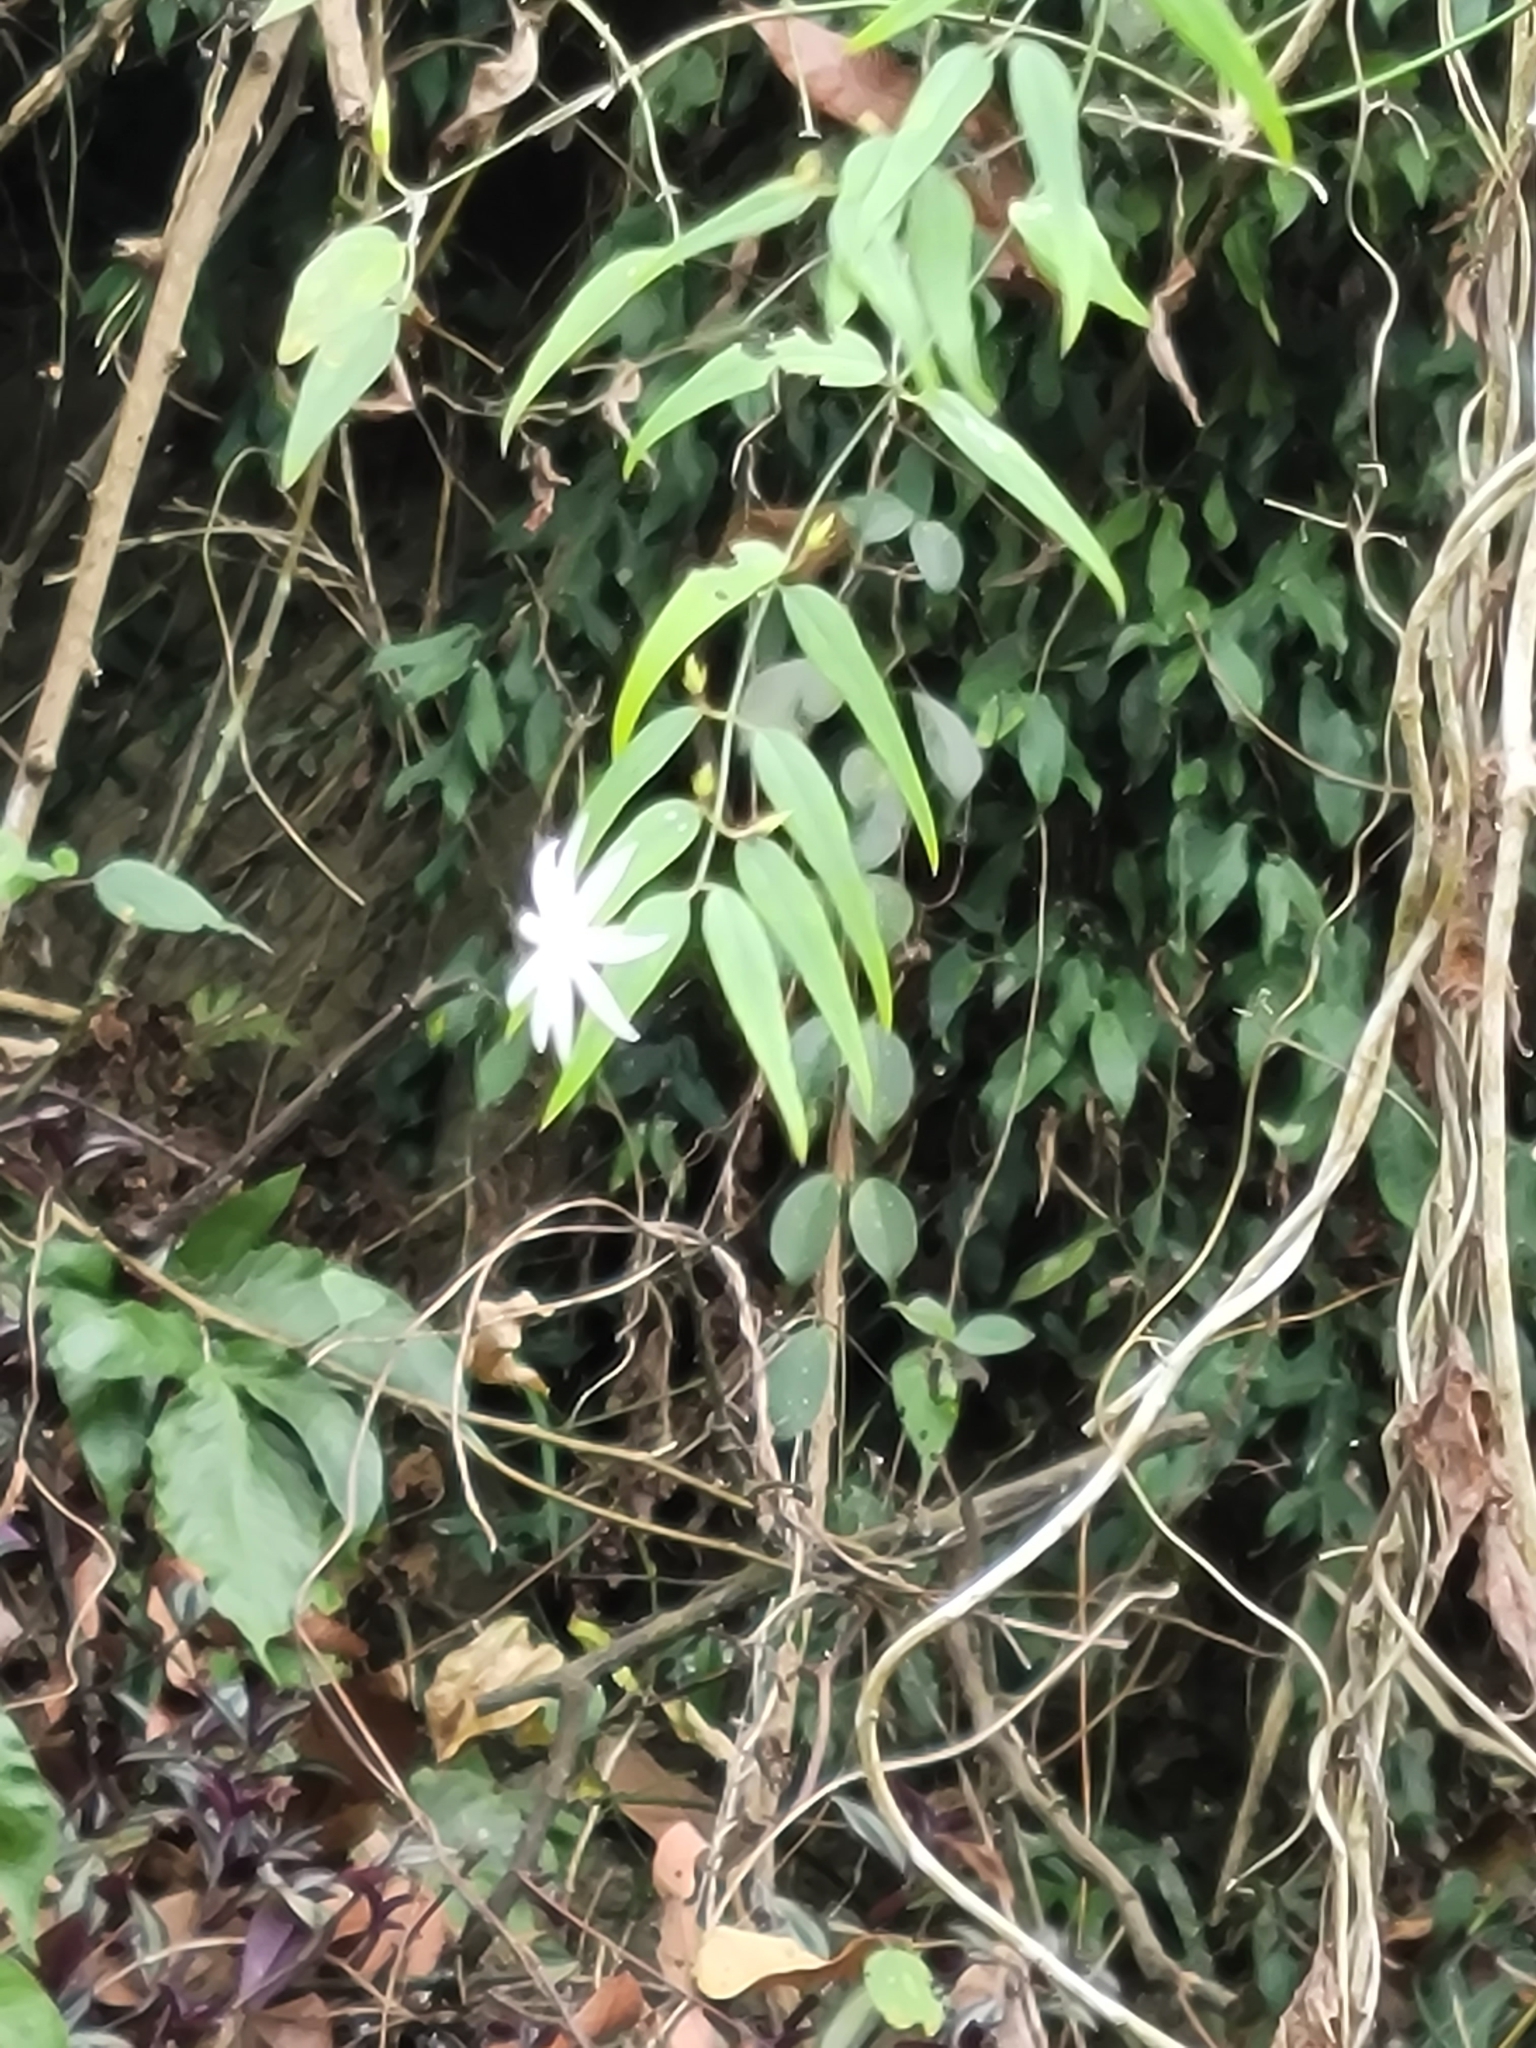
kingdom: Plantae
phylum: Tracheophyta
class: Magnoliopsida
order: Lamiales
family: Oleaceae
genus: Jasminum
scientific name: Jasminum nervosum
